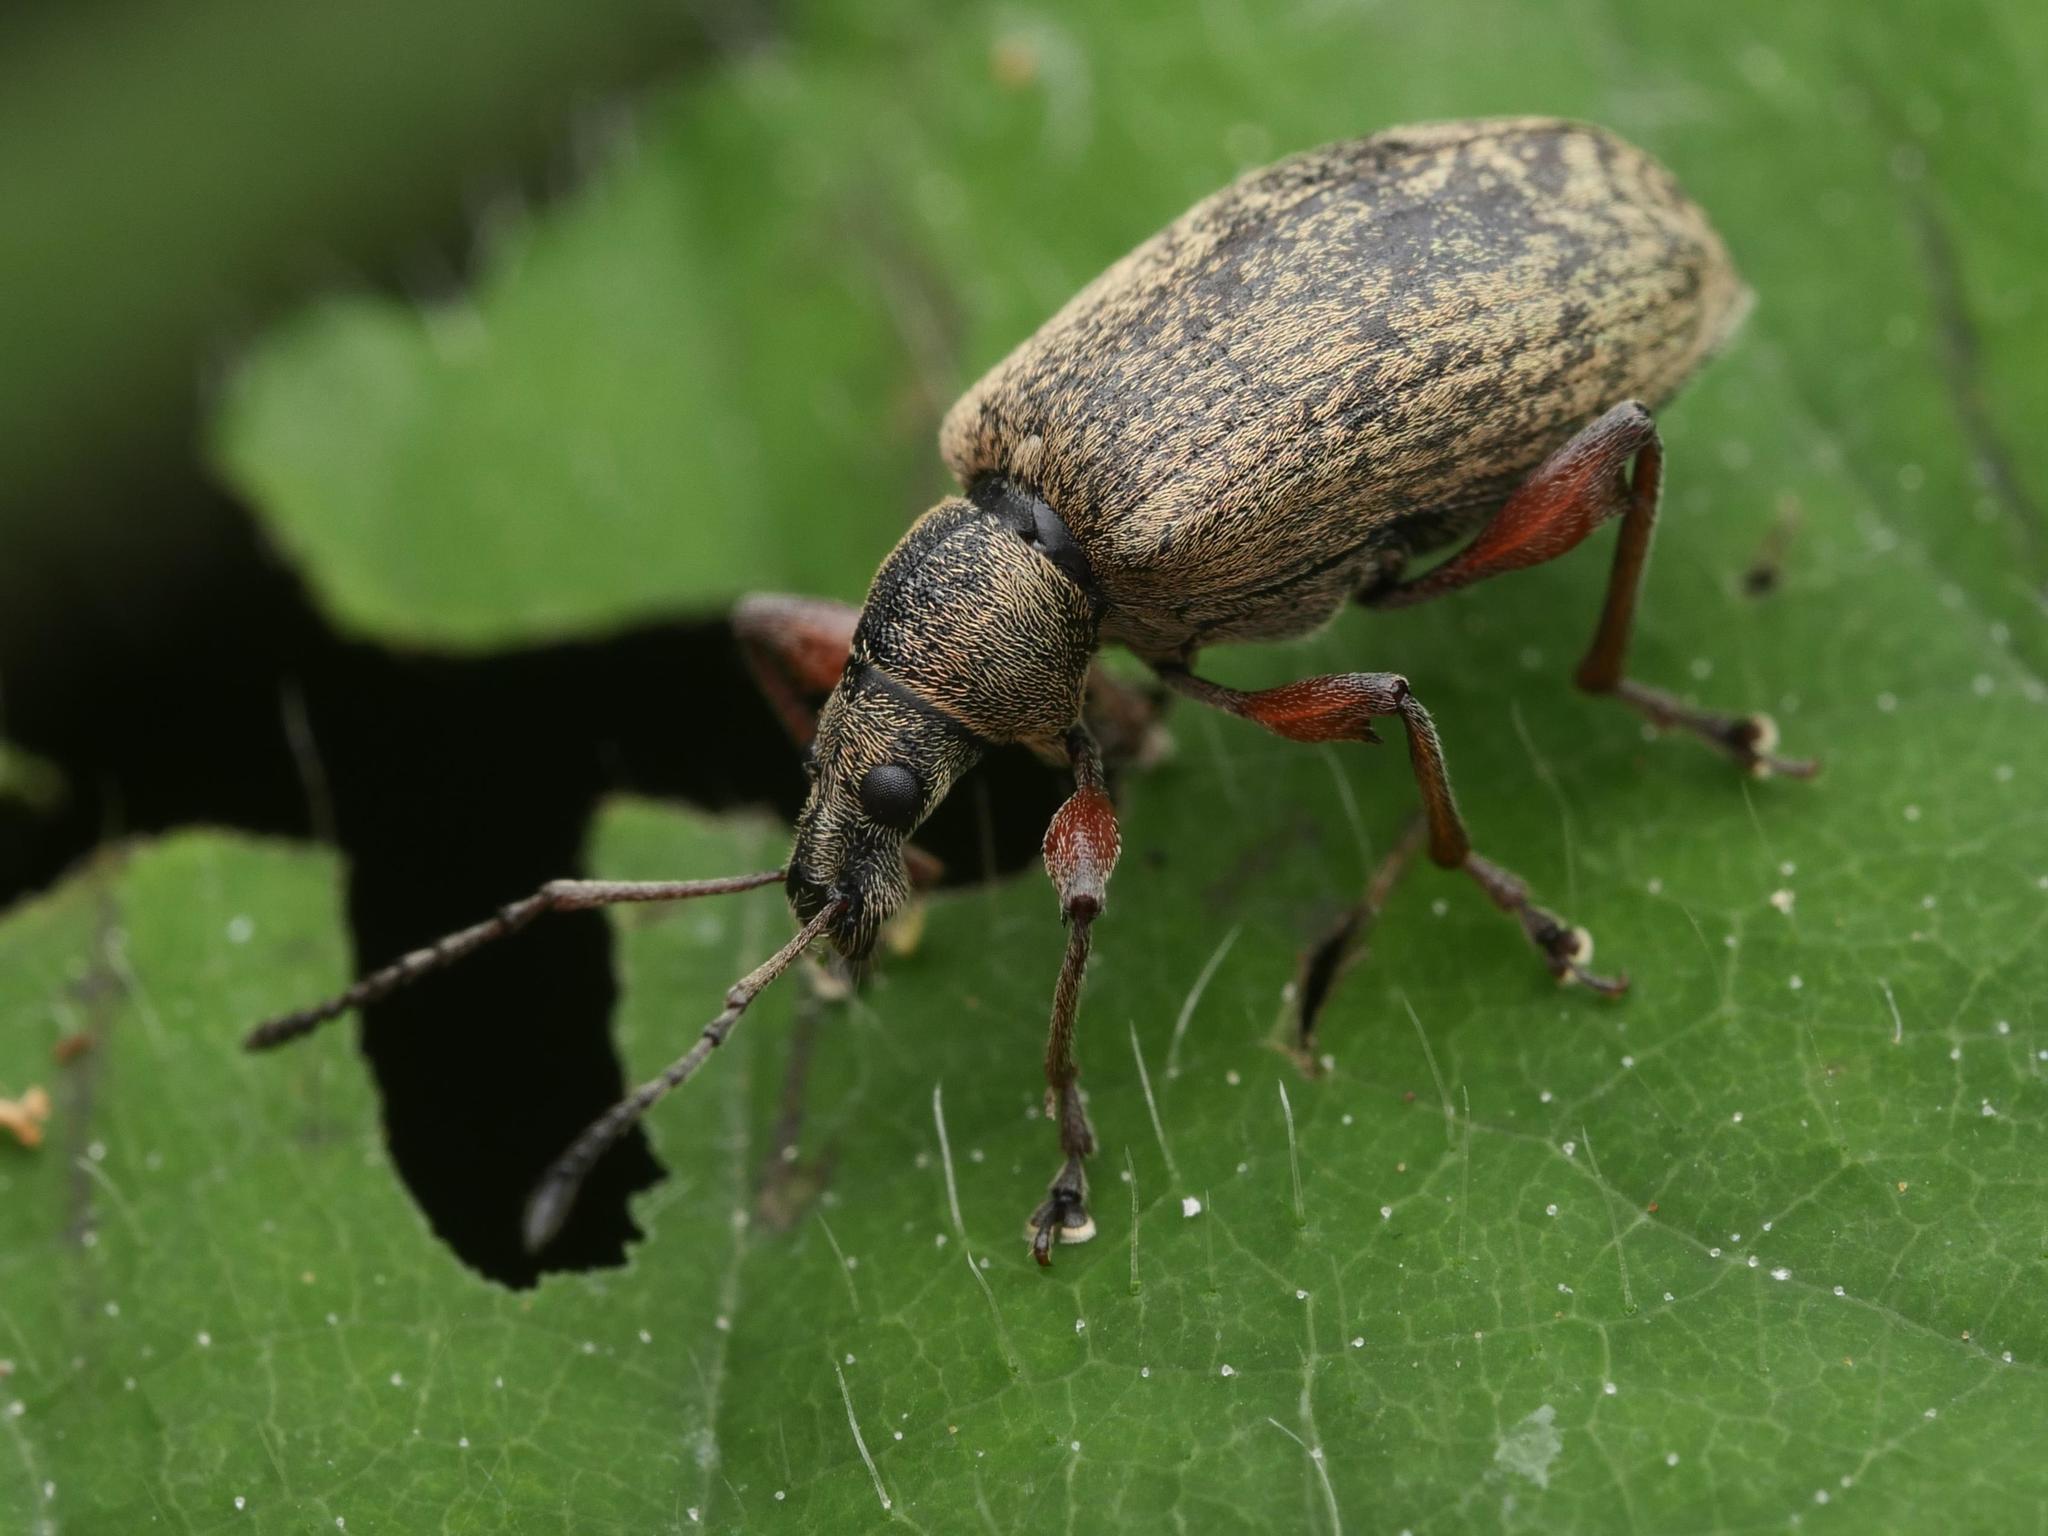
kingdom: Animalia
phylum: Arthropoda
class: Insecta
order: Coleoptera
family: Curculionidae
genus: Phyllobius
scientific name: Phyllobius glaucus
